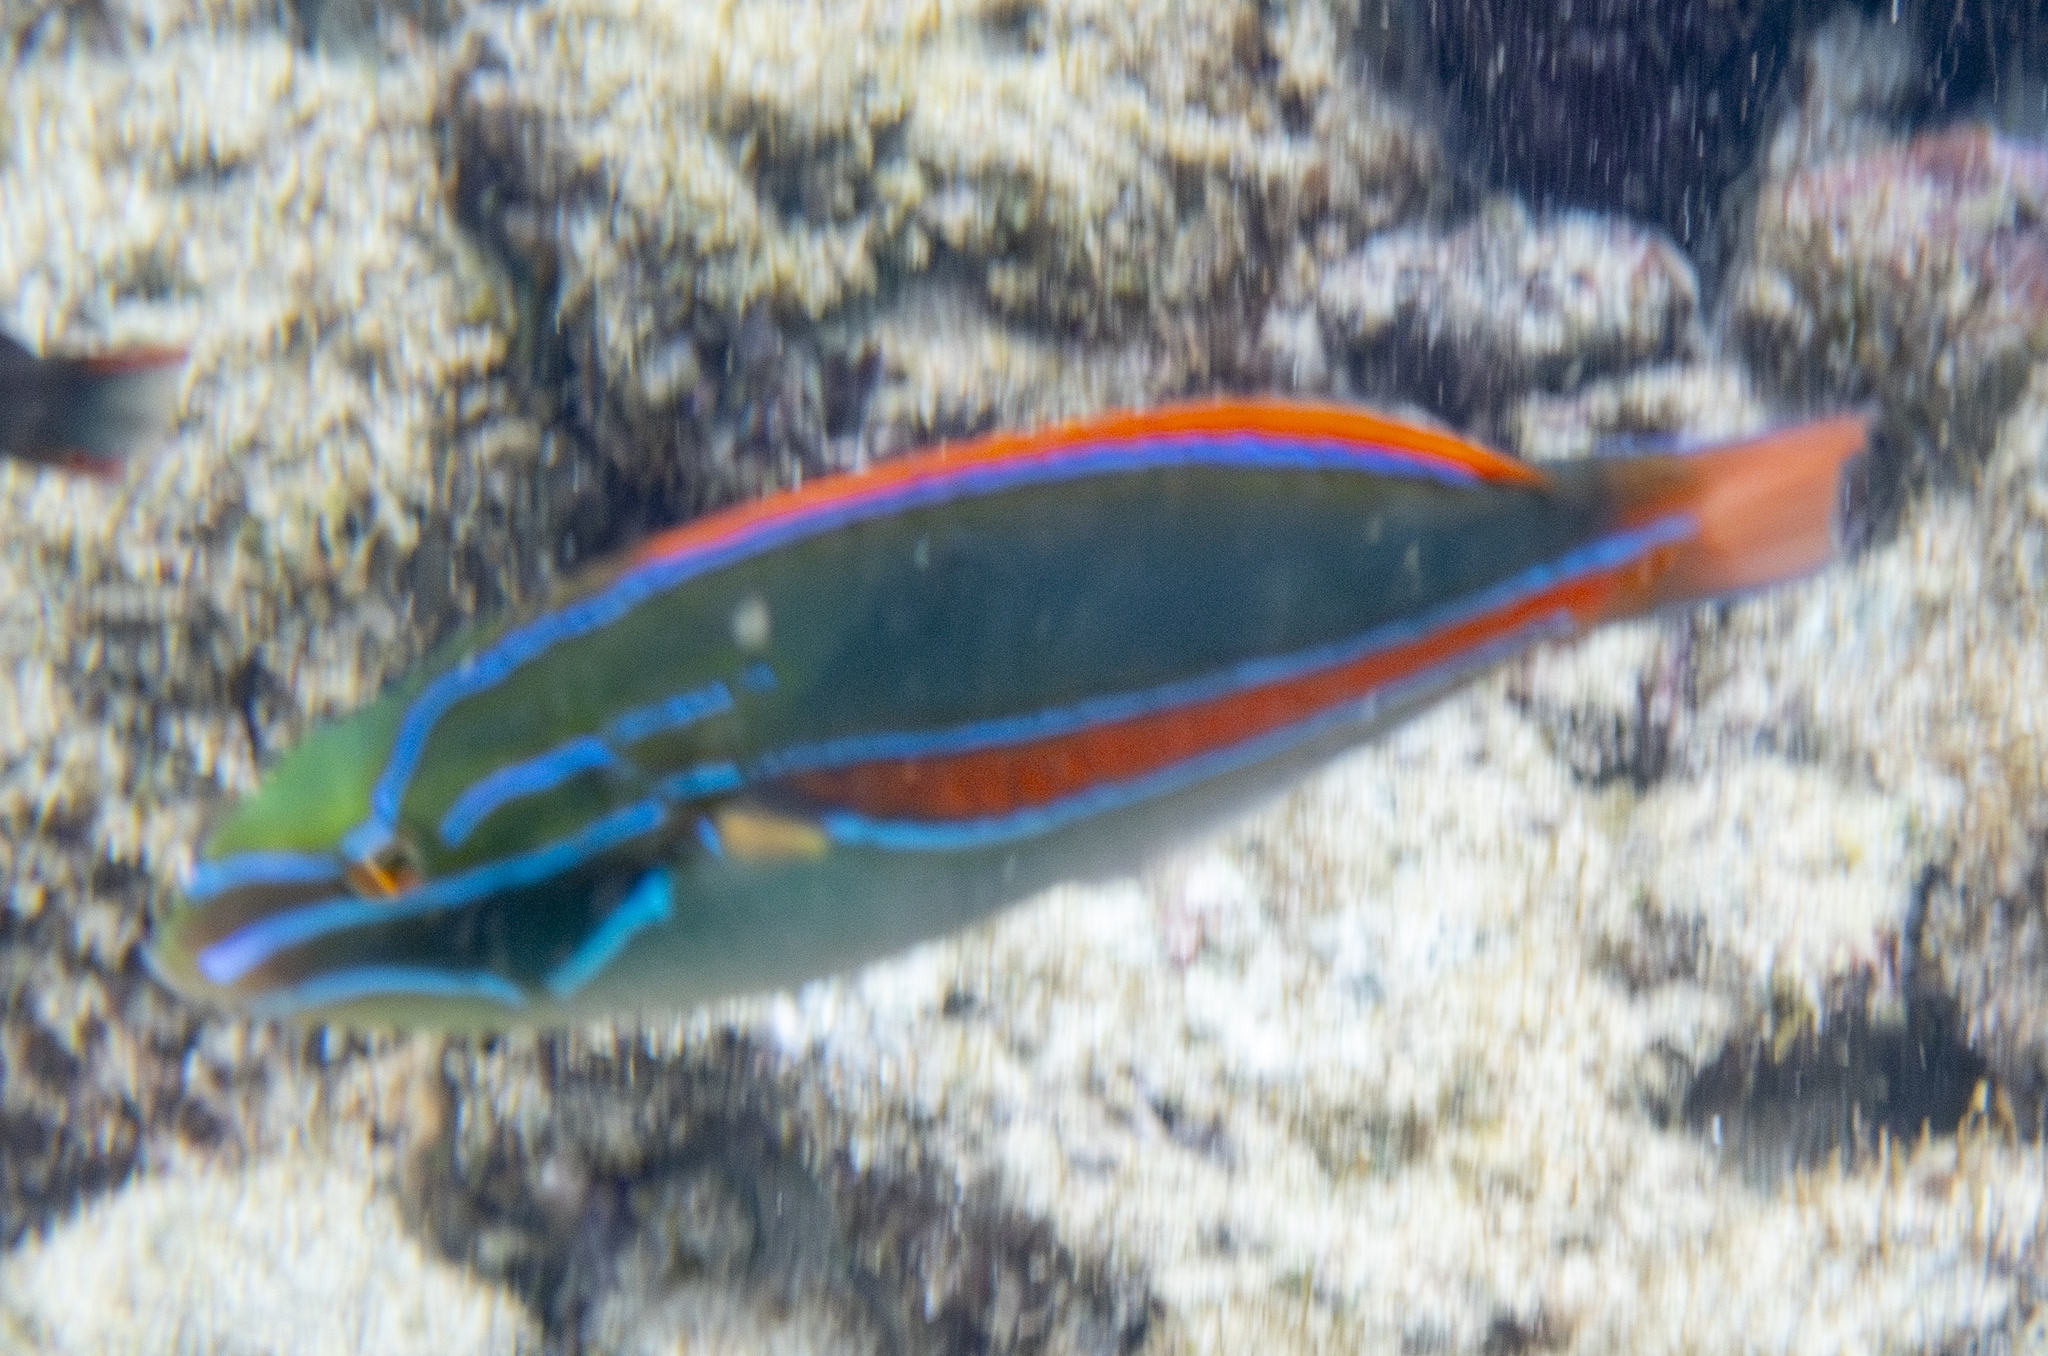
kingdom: Animalia
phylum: Chordata
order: Perciformes
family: Labridae
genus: Stethojulis
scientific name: Stethojulis balteata
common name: Belted wrasse
